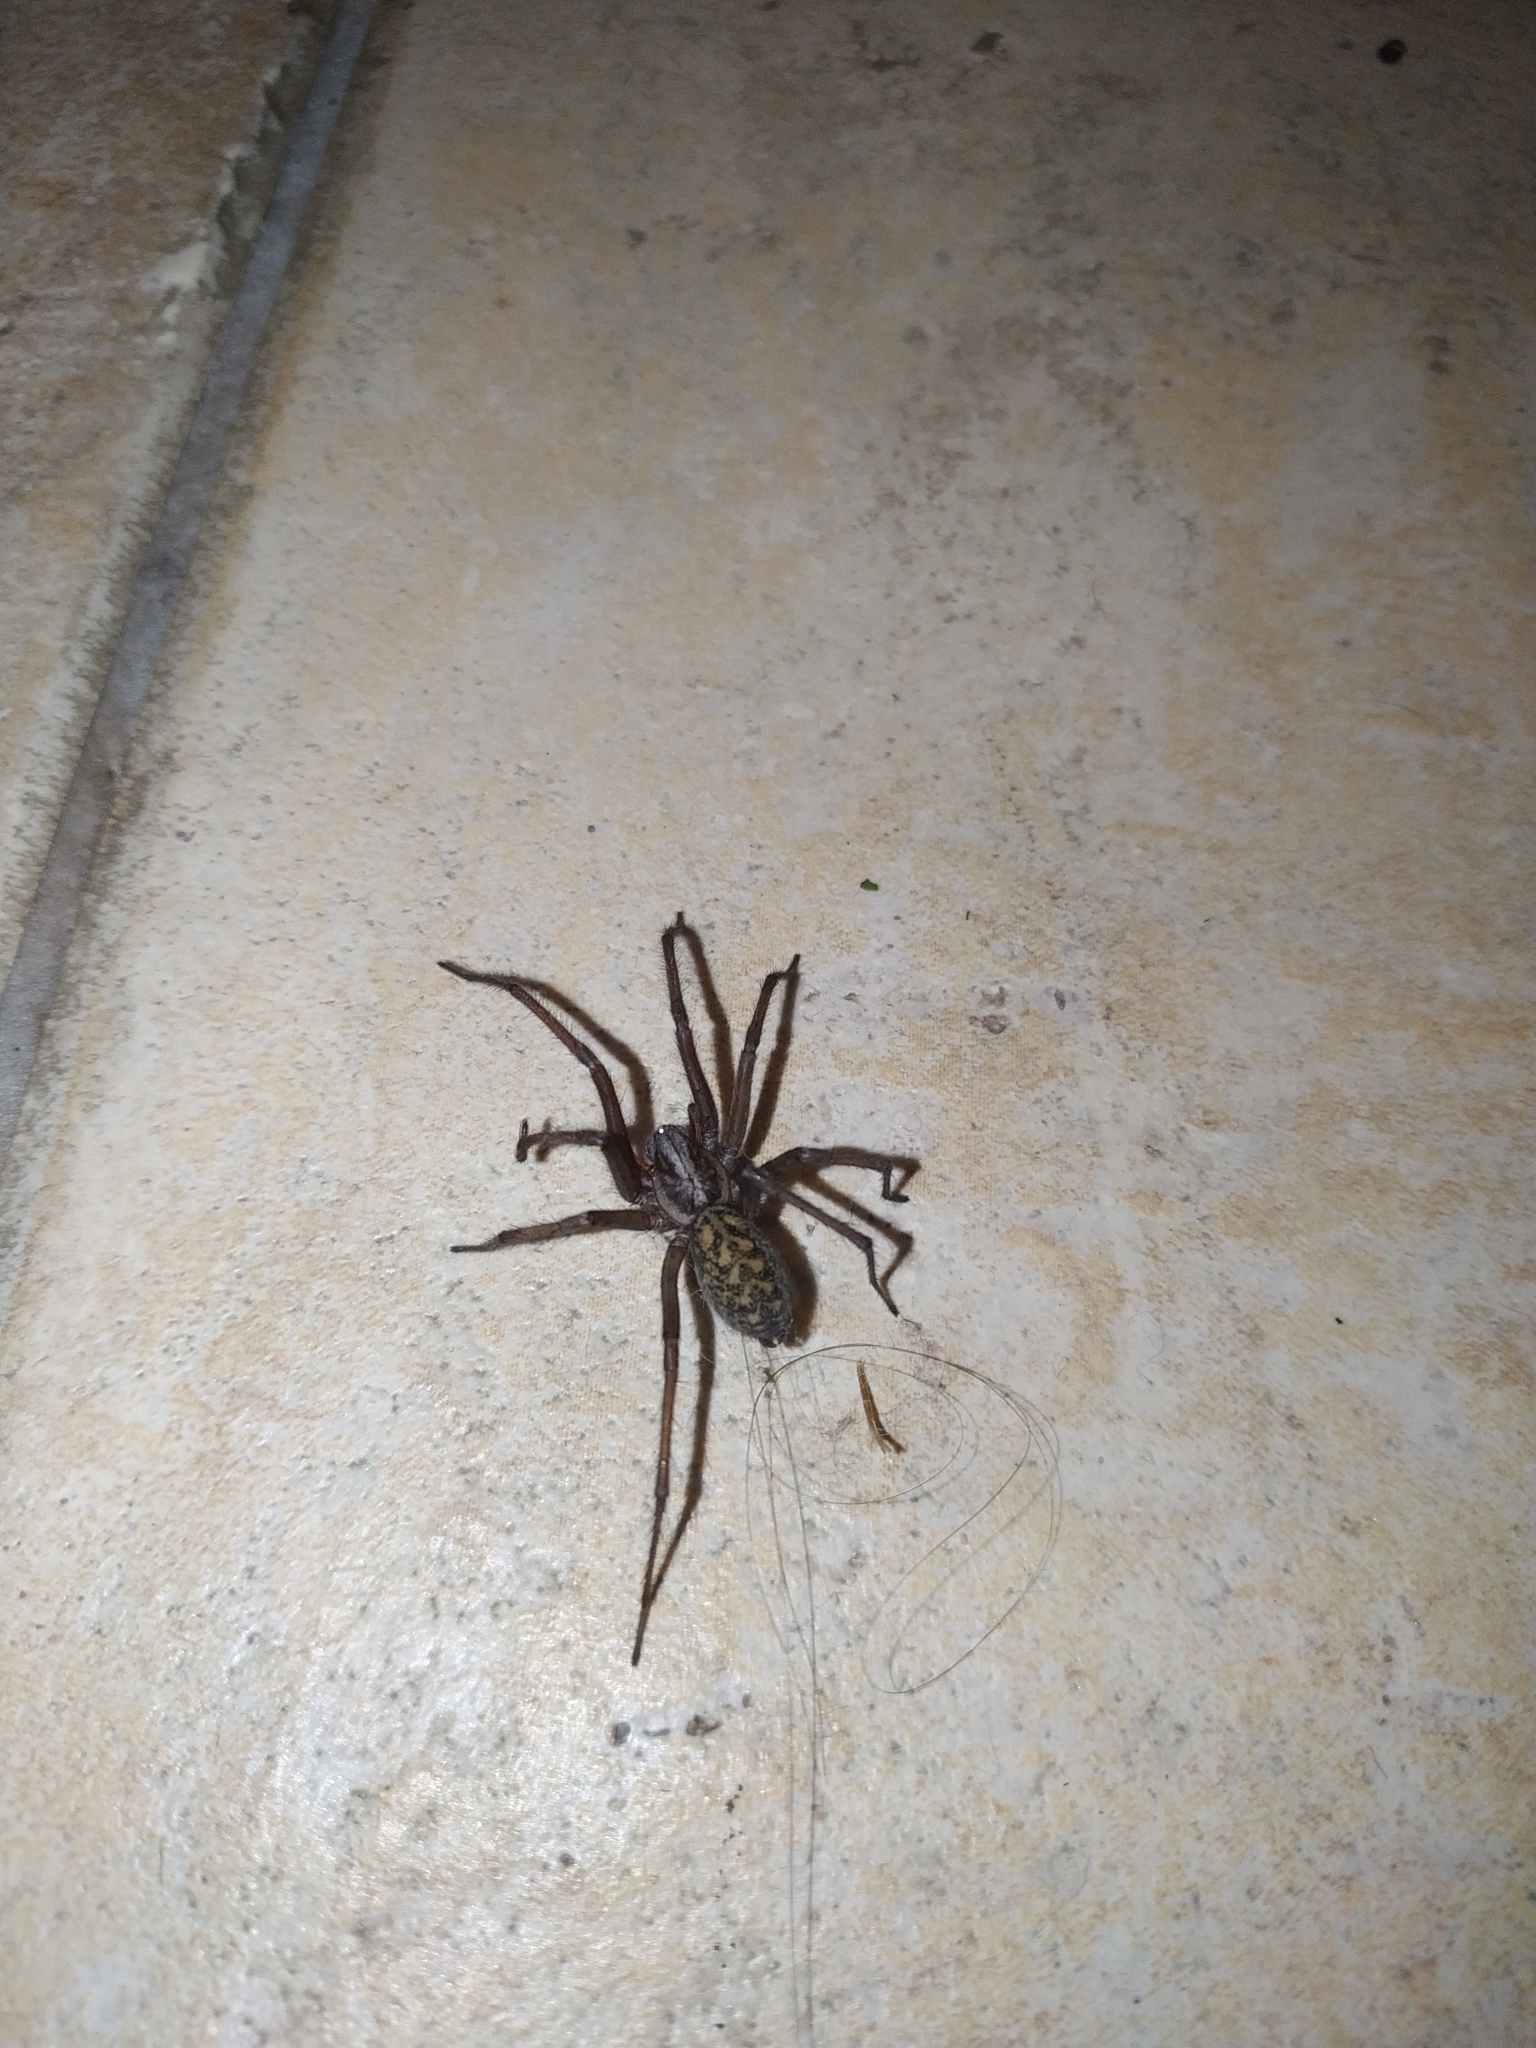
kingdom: Animalia
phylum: Arthropoda
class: Arachnida
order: Araneae
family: Agelenidae
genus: Eratigena
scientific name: Eratigena atrica
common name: Giant house spider
